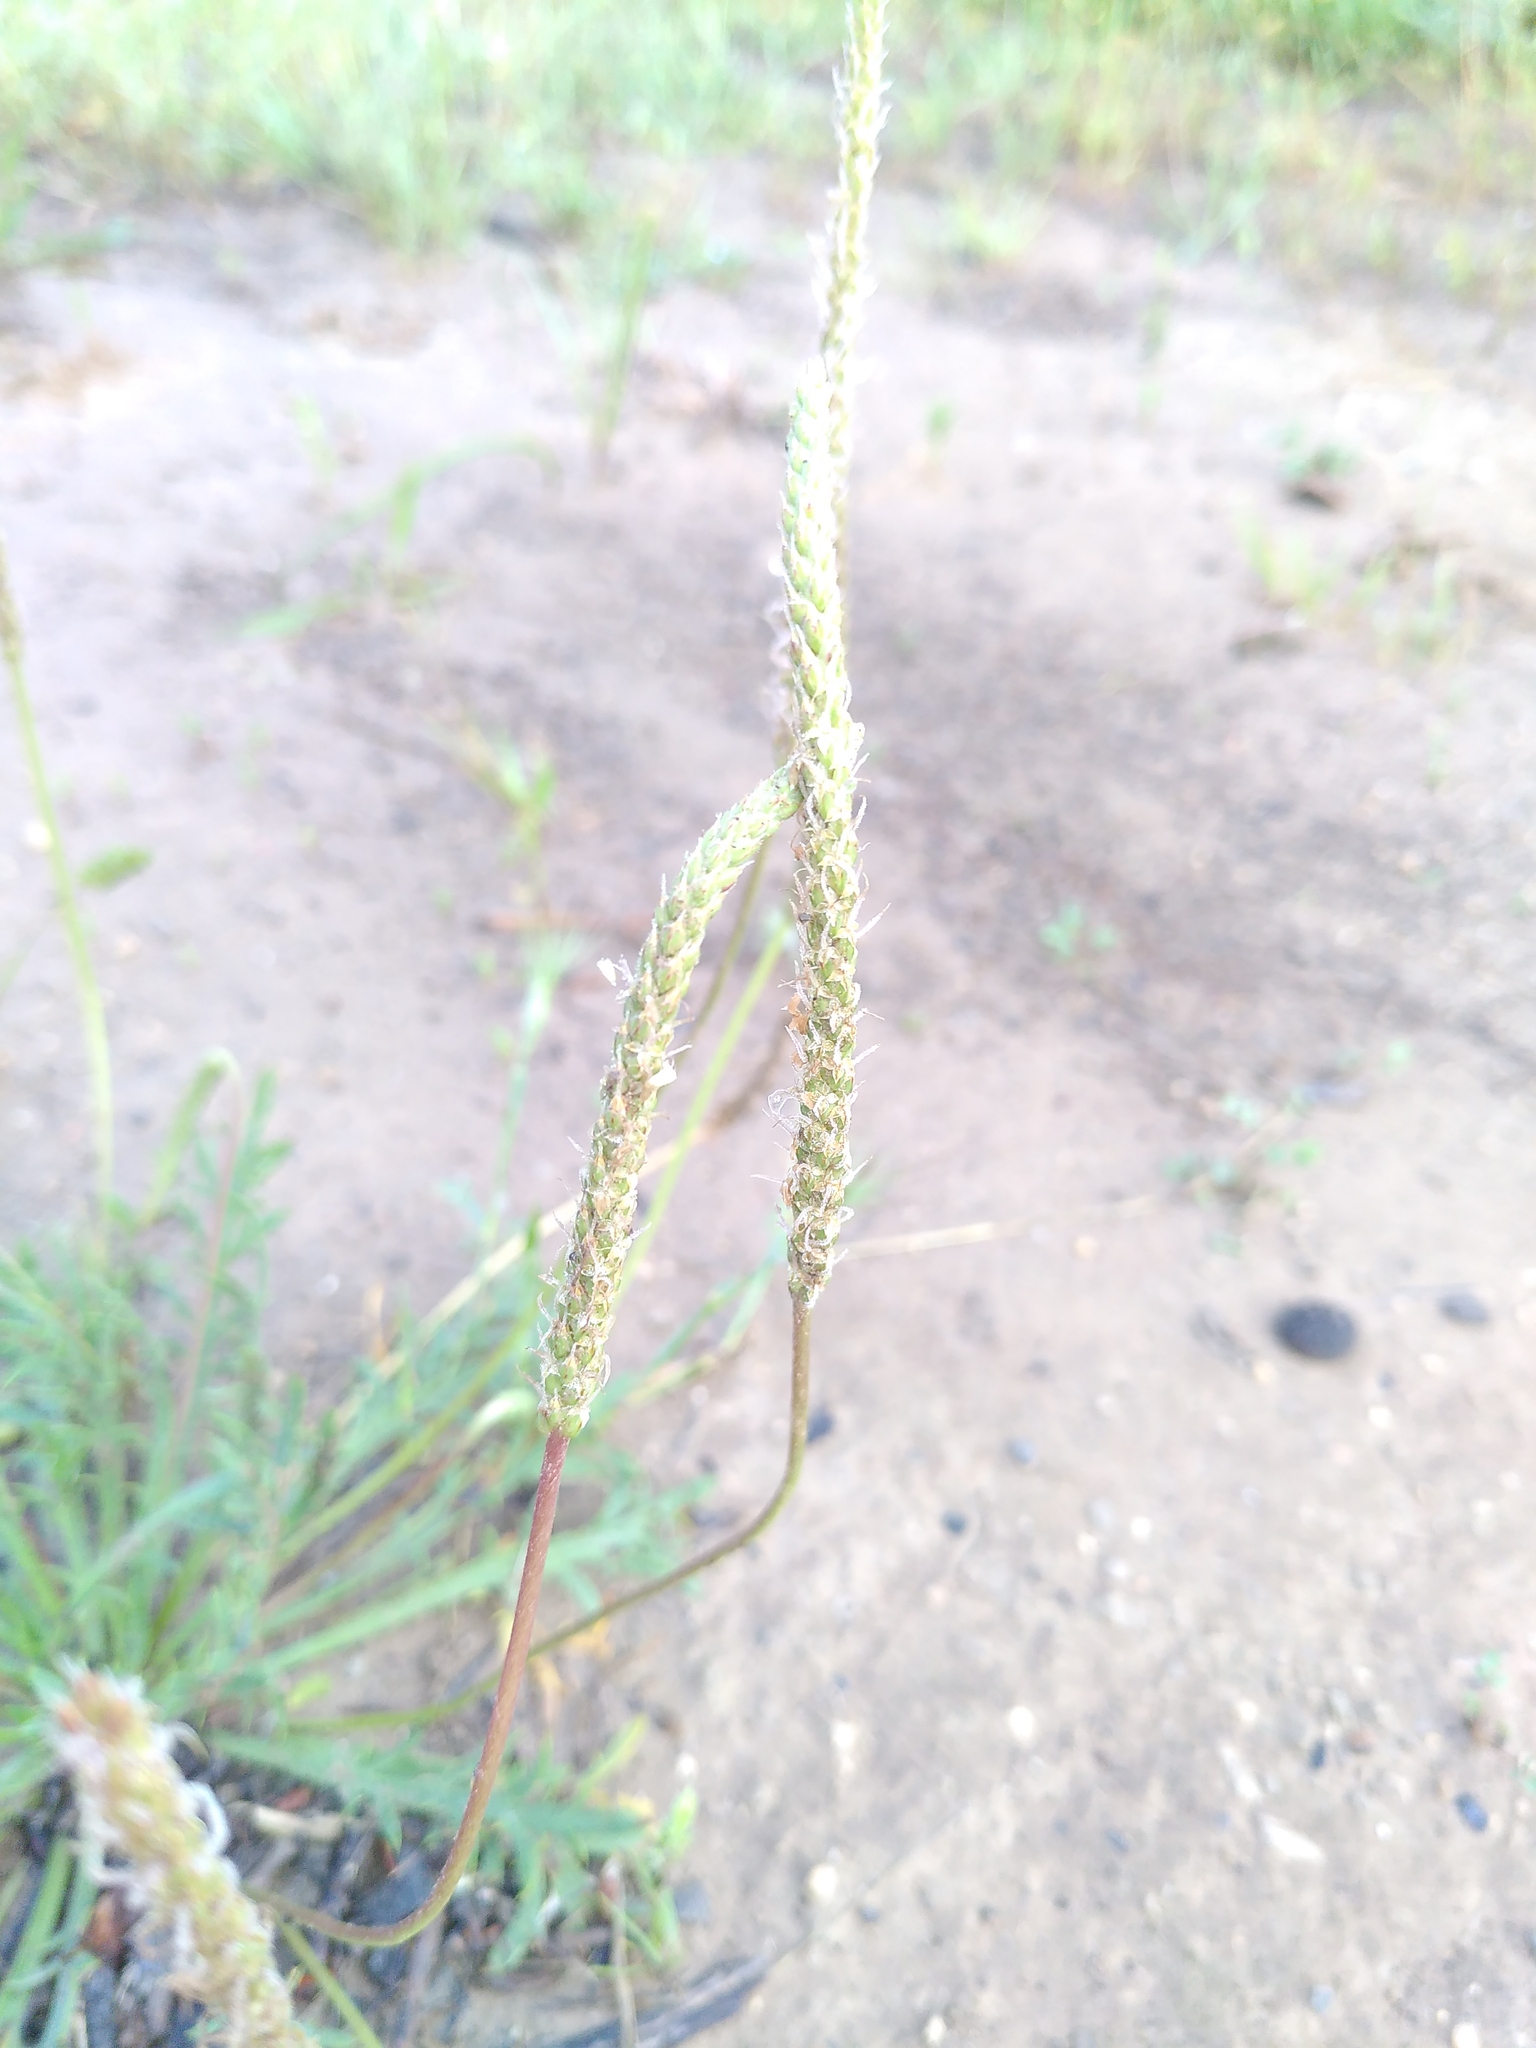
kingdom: Plantae
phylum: Tracheophyta
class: Magnoliopsida
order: Lamiales
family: Plantaginaceae
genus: Plantago
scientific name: Plantago coronopus
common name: Buck's-horn plantain
